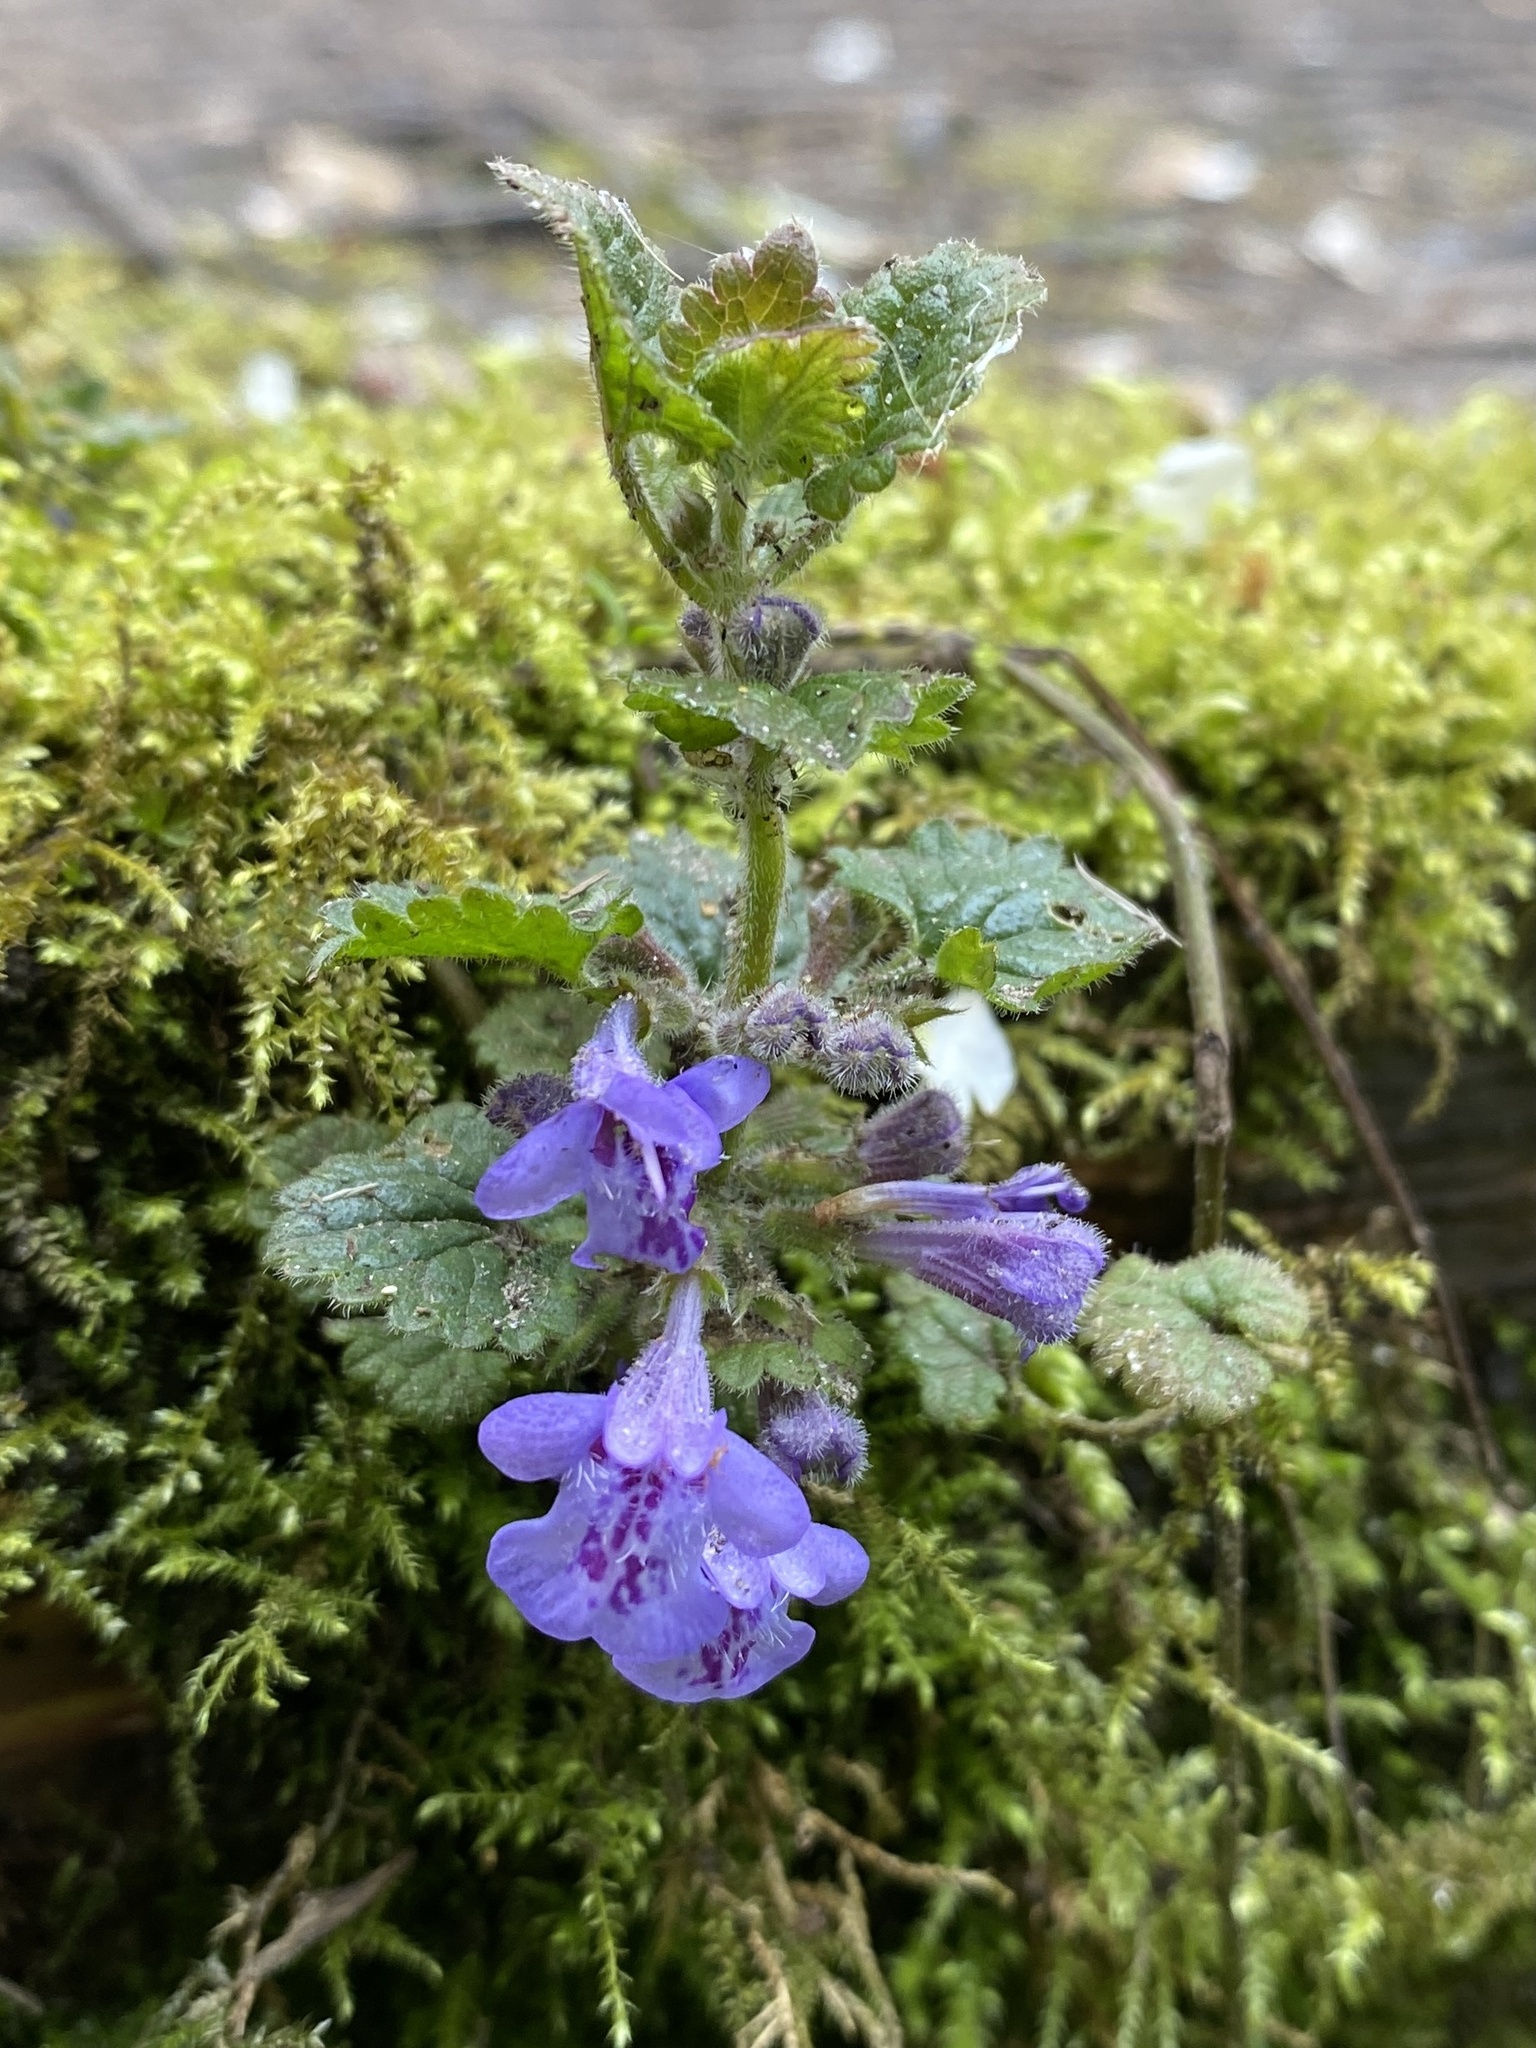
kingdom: Plantae
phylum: Tracheophyta
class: Magnoliopsida
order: Lamiales
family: Lamiaceae
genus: Glechoma
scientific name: Glechoma hederacea
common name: Ground ivy
